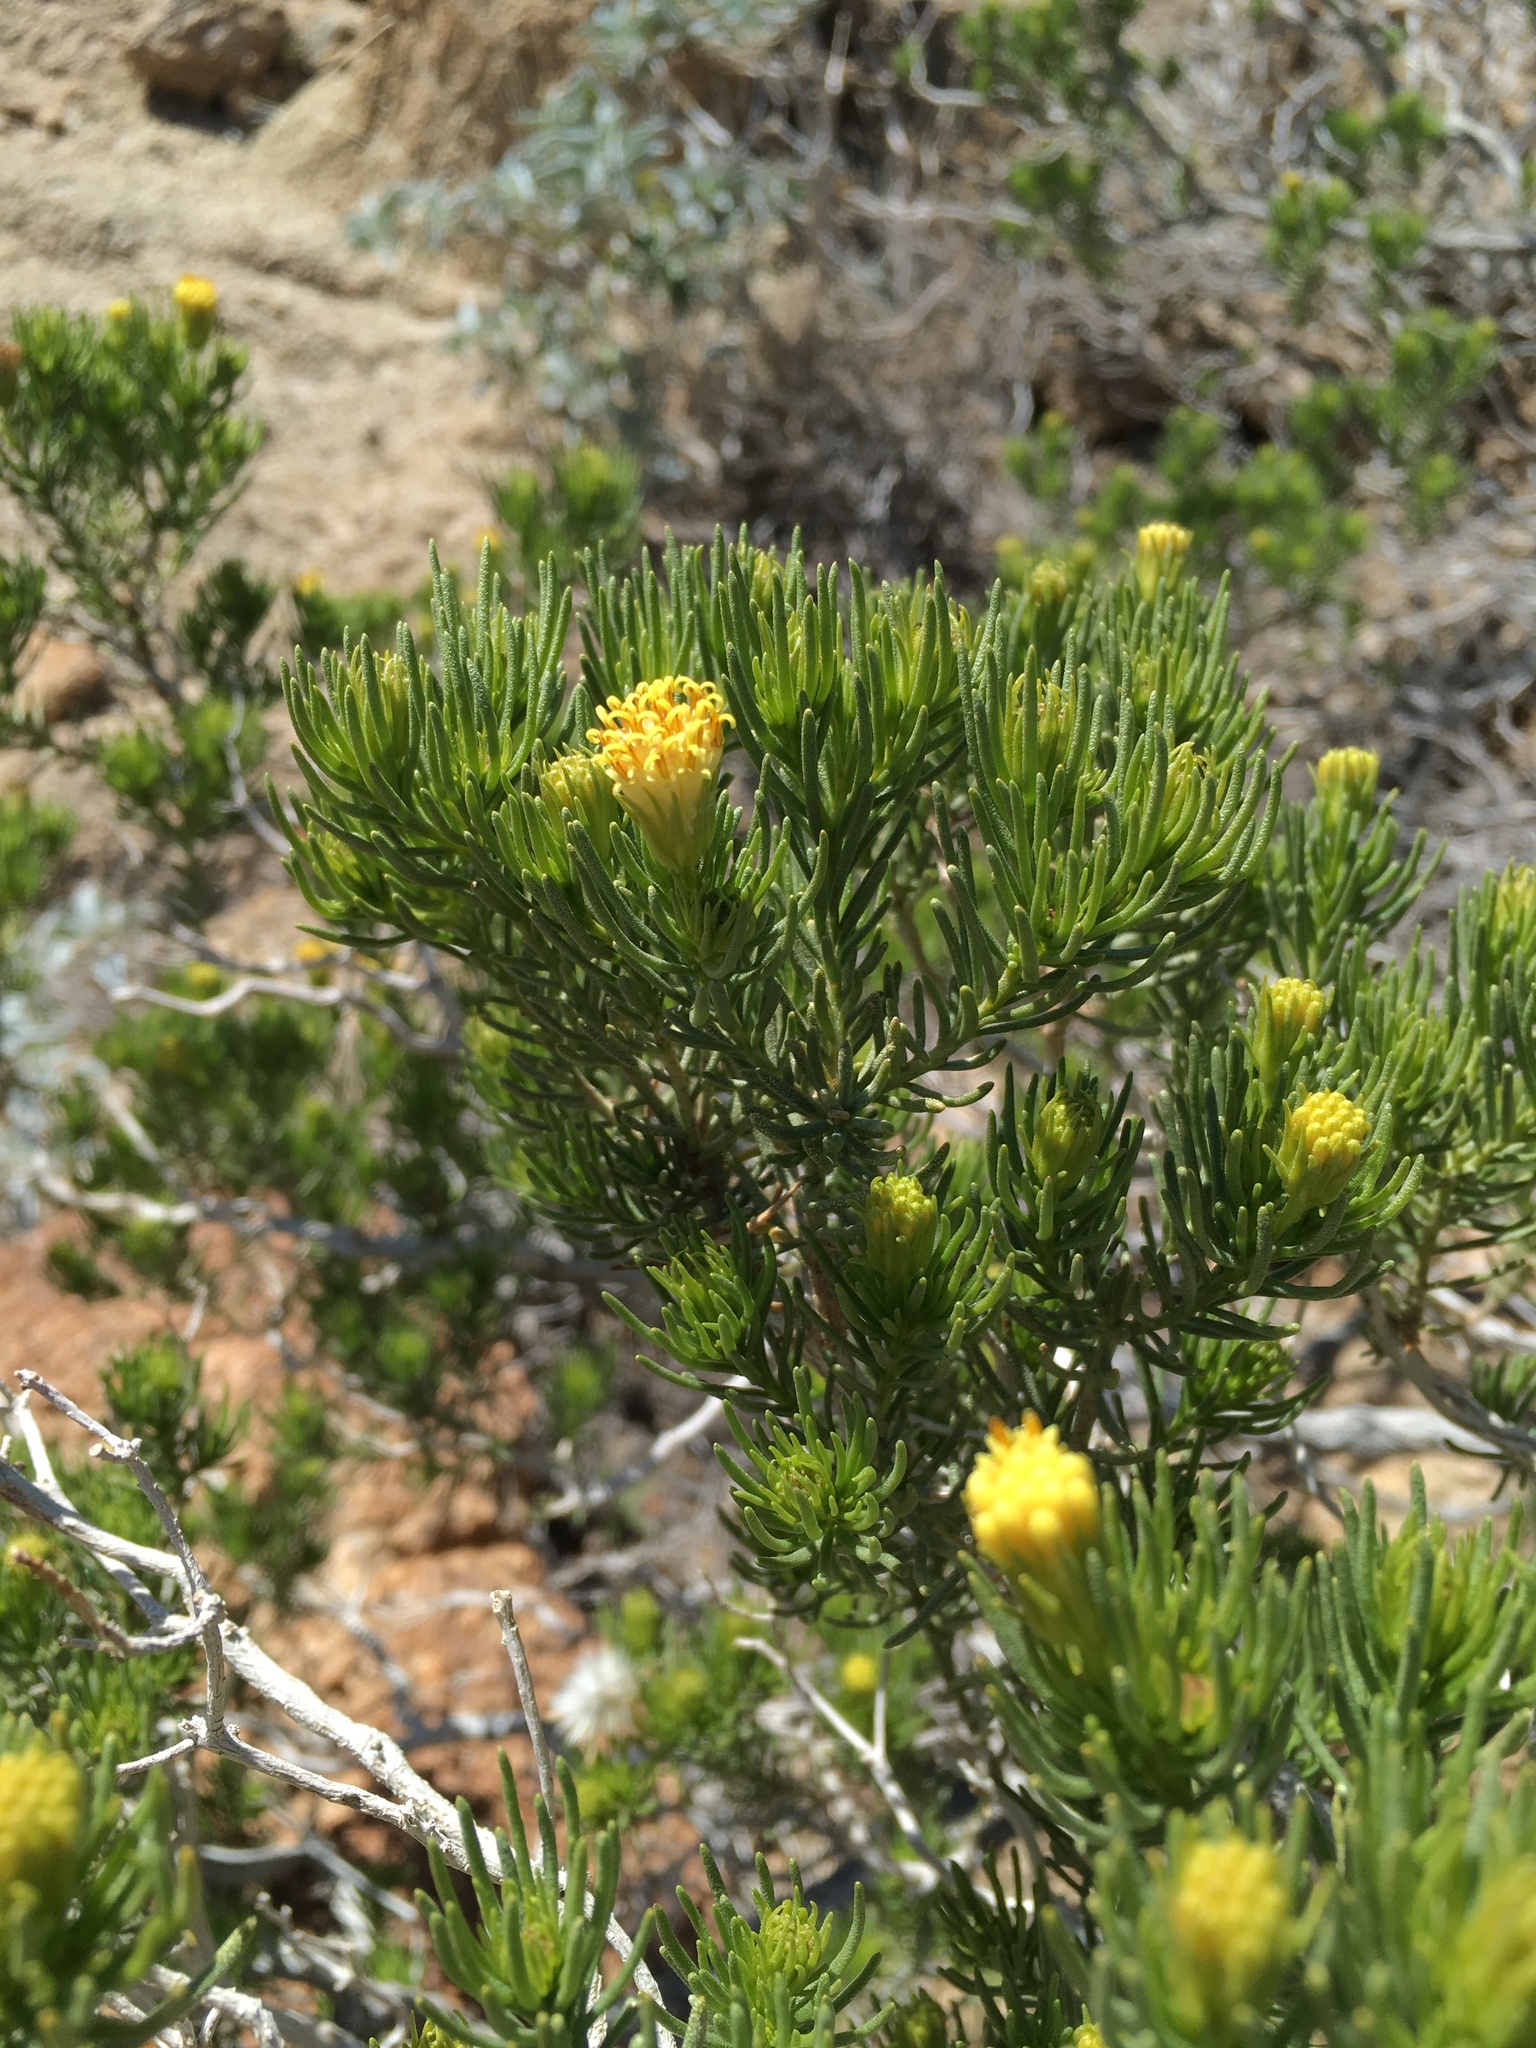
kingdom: Plantae
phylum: Tracheophyta
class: Magnoliopsida
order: Asterales
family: Asteraceae
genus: Peucephyllum
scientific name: Peucephyllum schottii
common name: Pygmy-cedar
